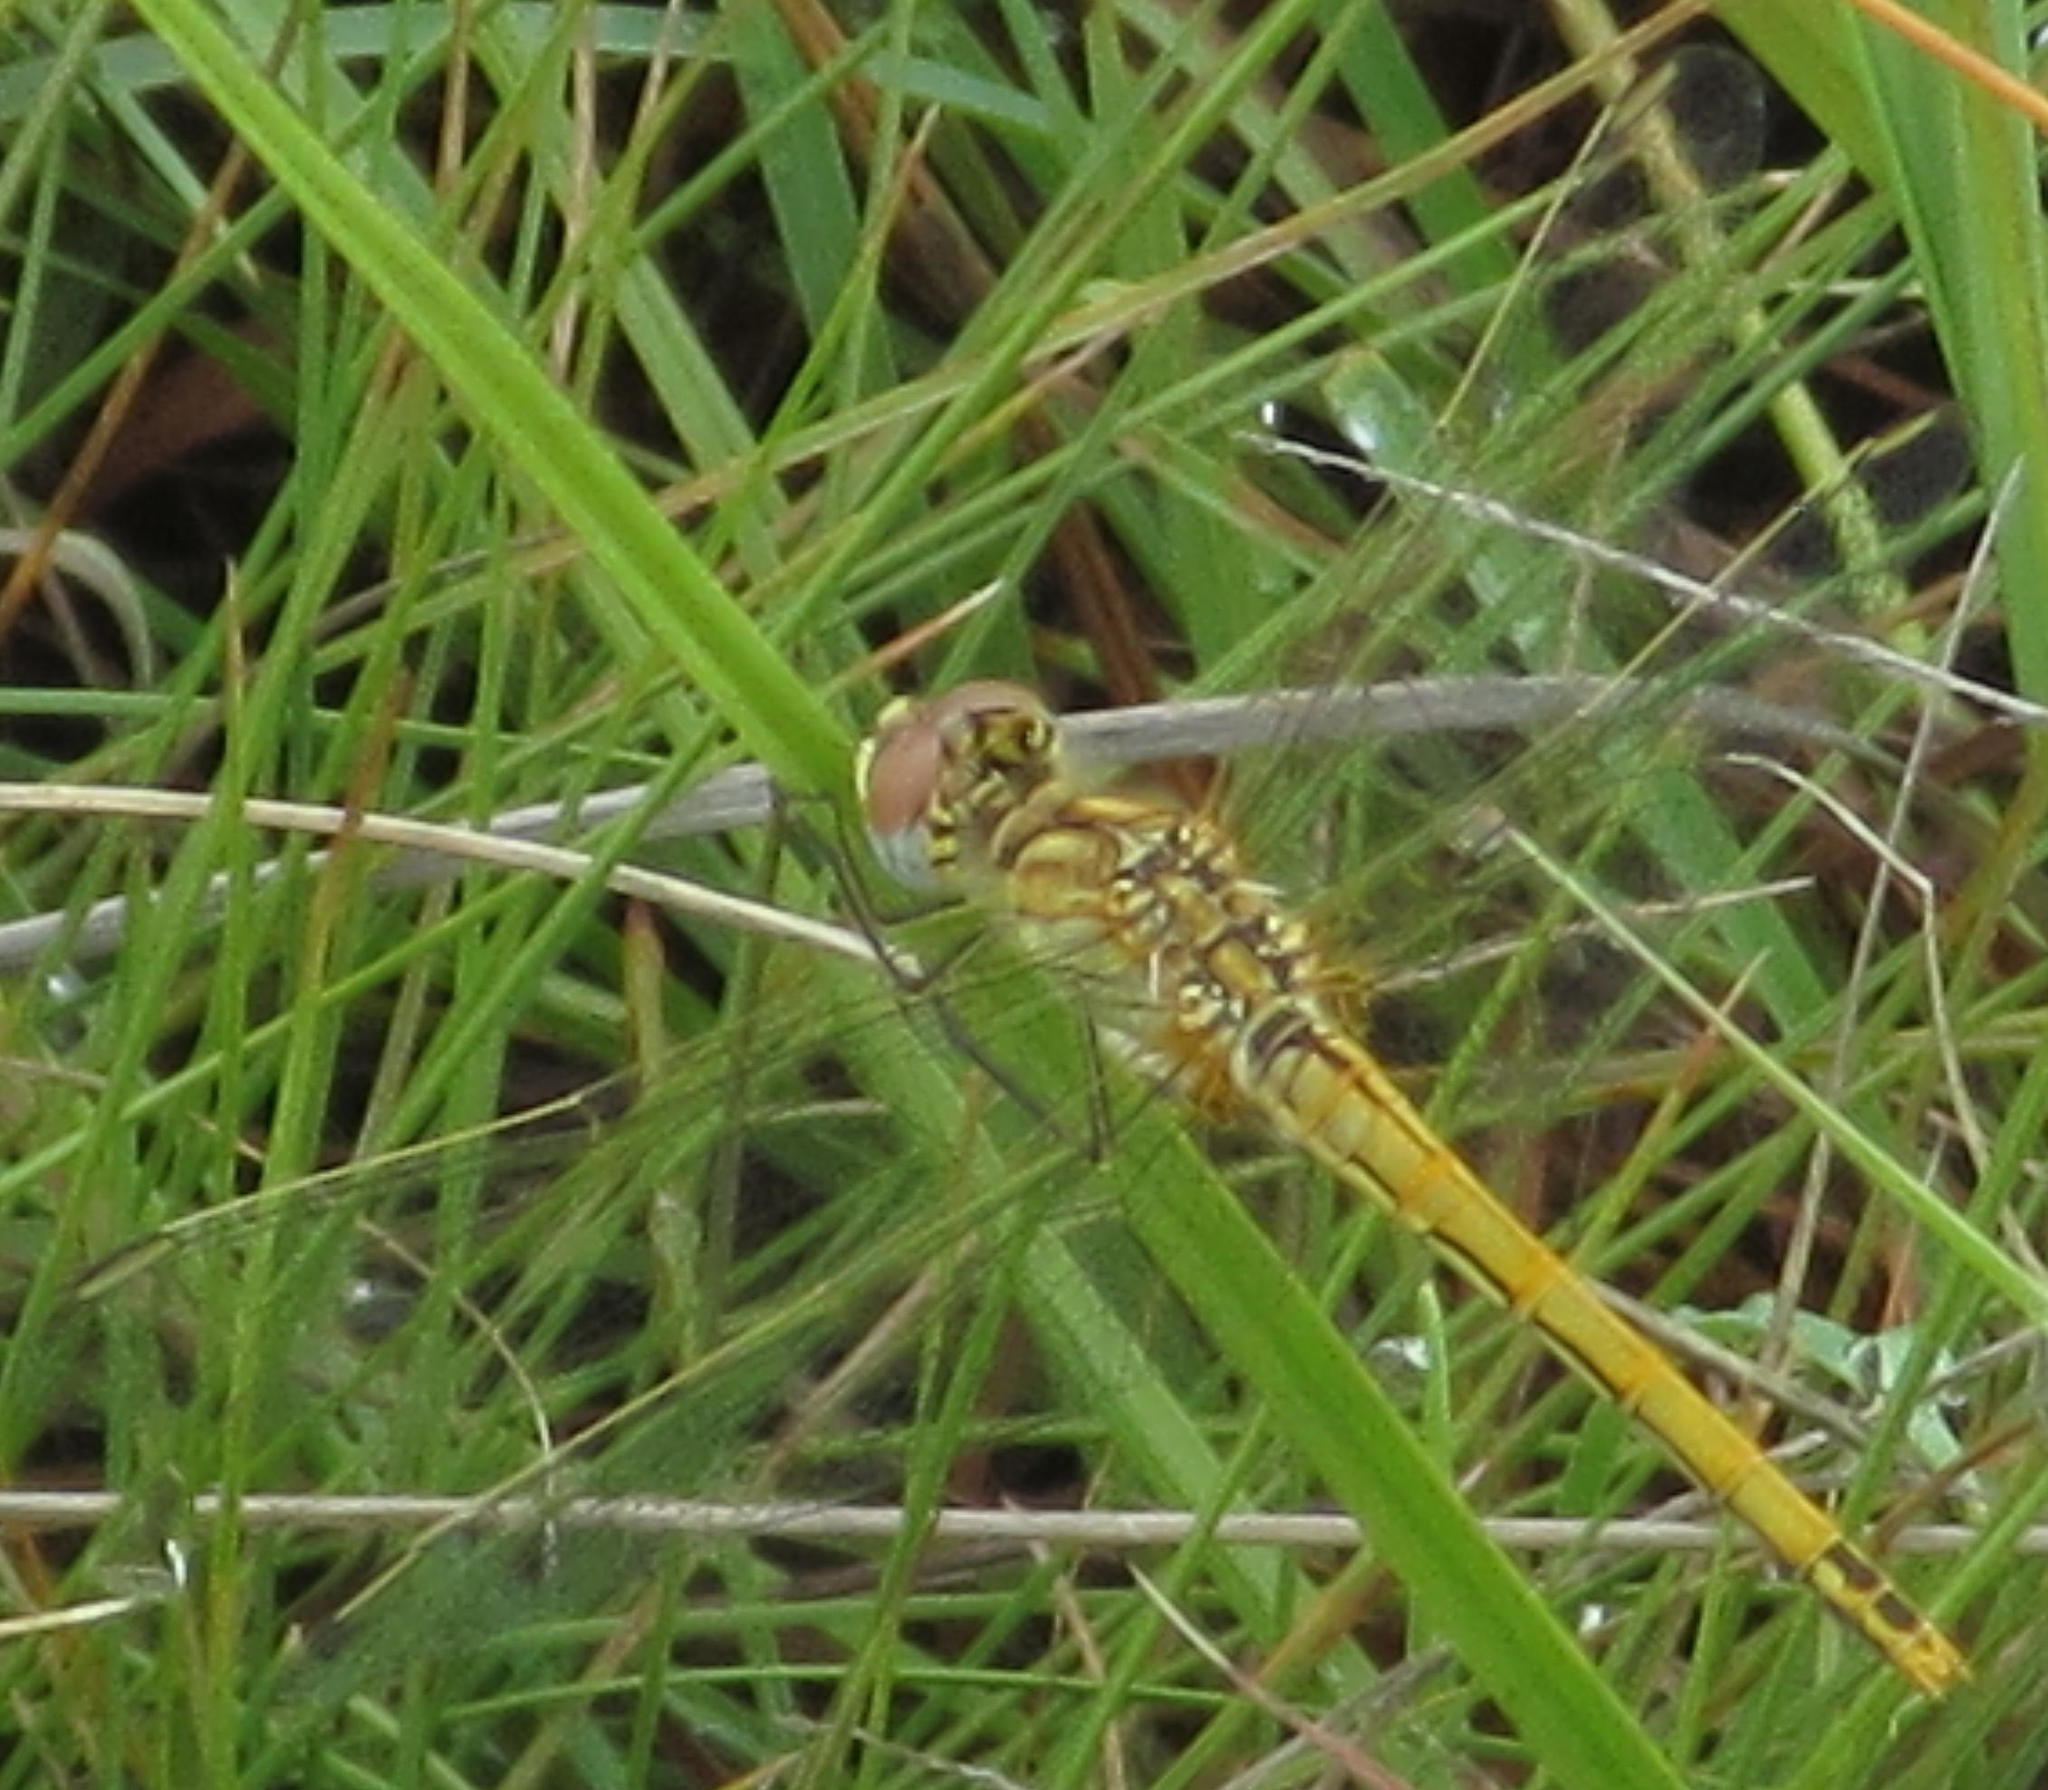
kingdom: Animalia
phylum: Arthropoda
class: Insecta
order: Odonata
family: Libellulidae
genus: Sympetrum
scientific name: Sympetrum fonscolombii
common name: Red-veined darter
